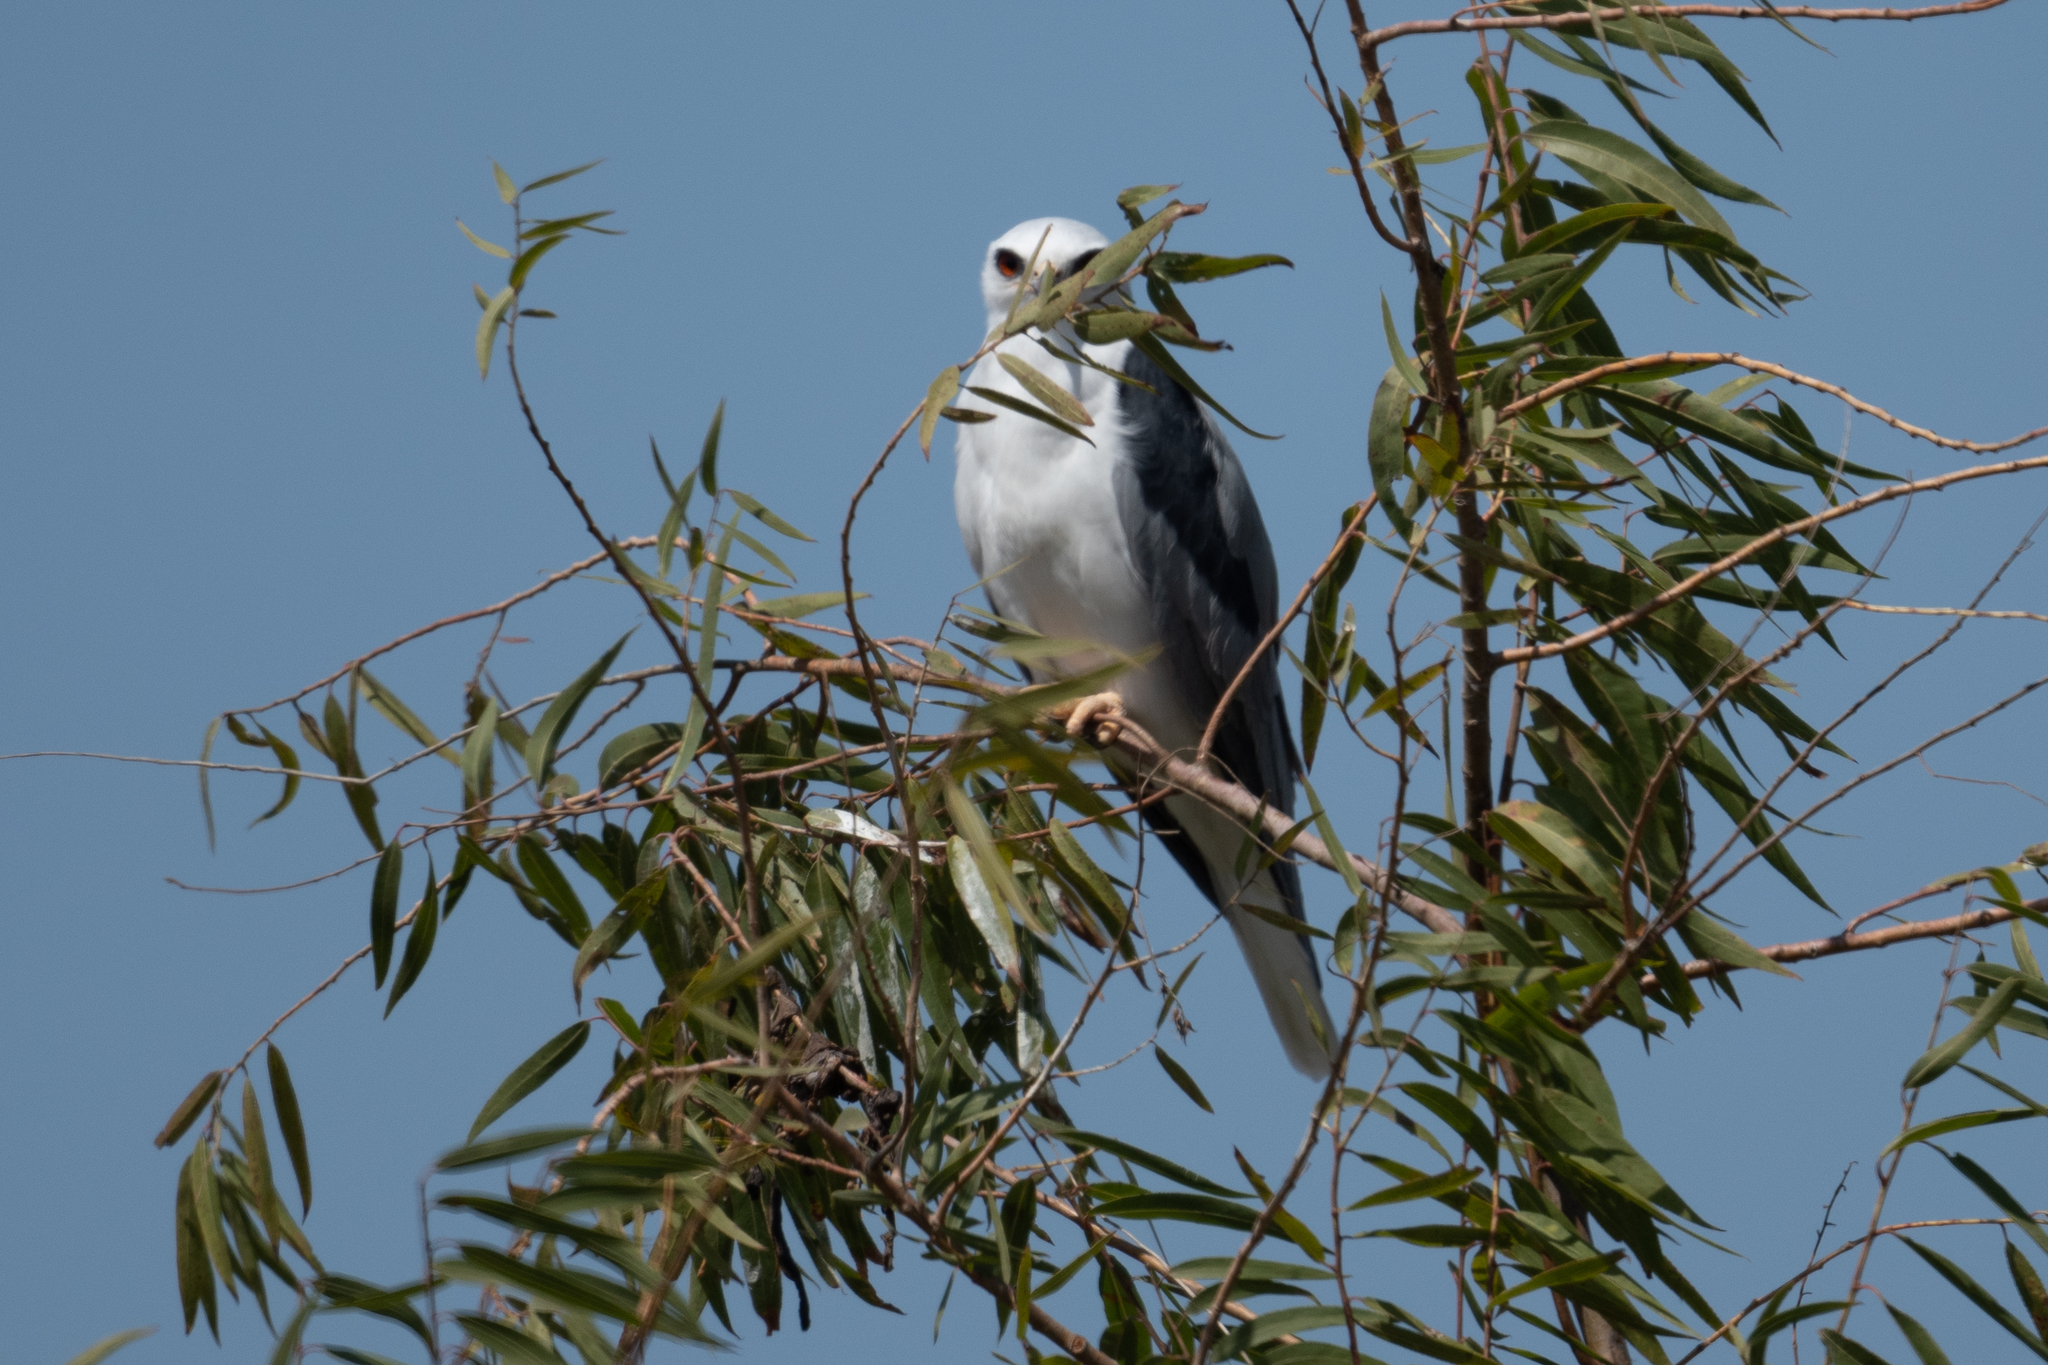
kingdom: Animalia
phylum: Chordata
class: Aves
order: Accipitriformes
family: Accipitridae
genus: Elanus
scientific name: Elanus leucurus
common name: White-tailed kite
